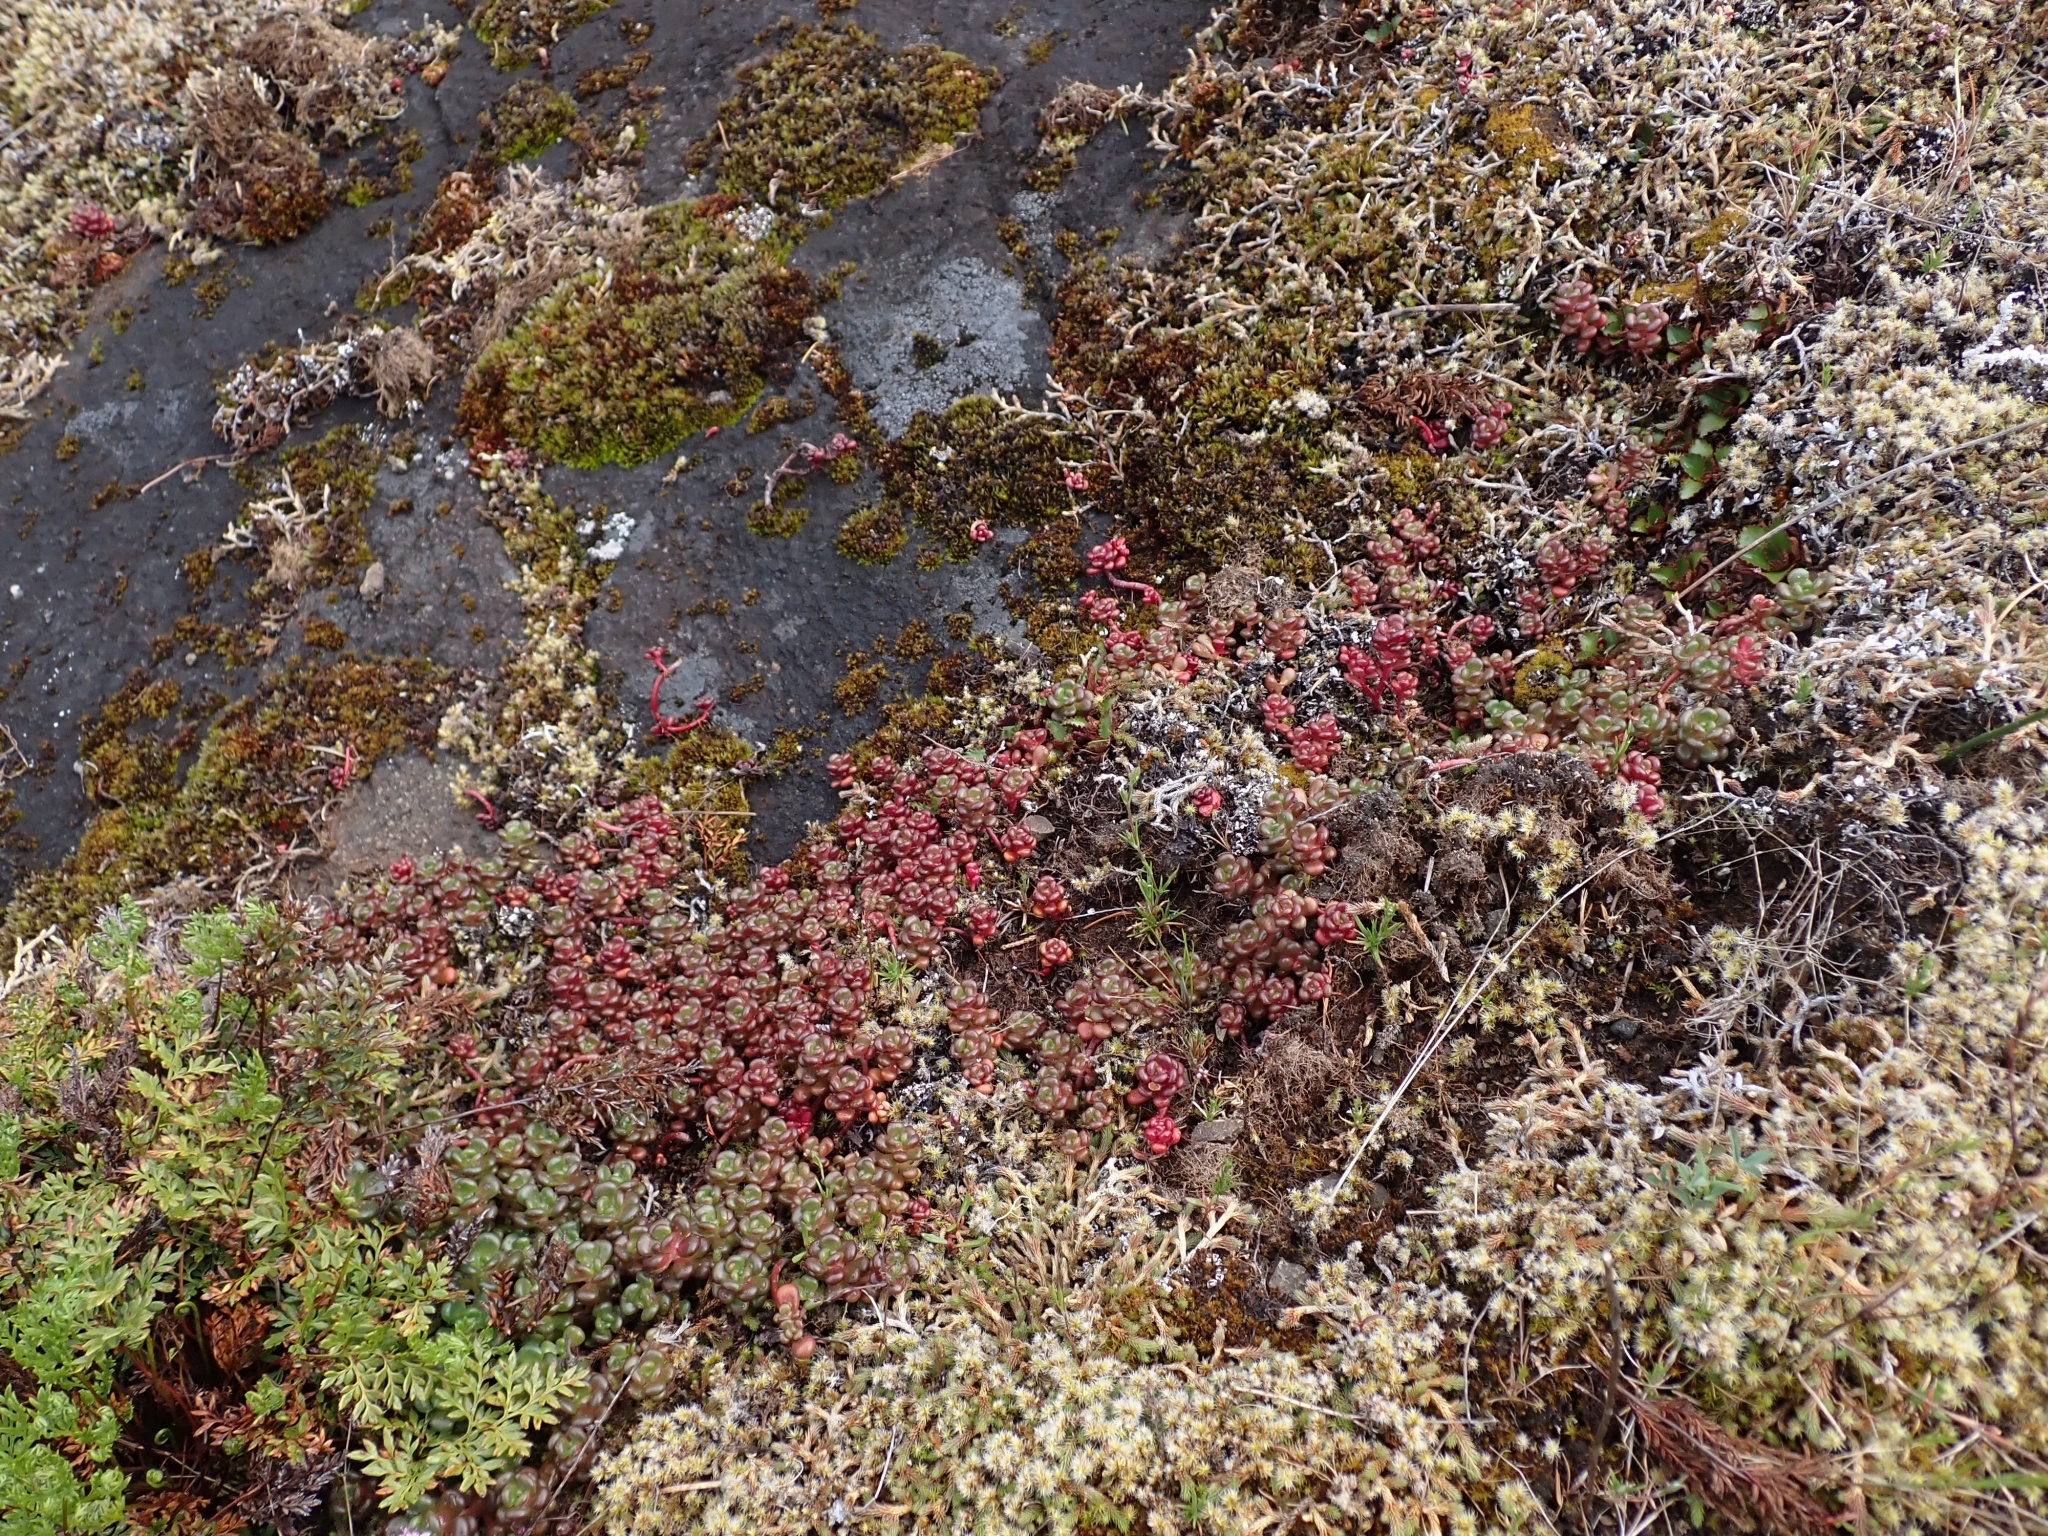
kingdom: Plantae
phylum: Tracheophyta
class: Magnoliopsida
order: Saxifragales
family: Crassulaceae
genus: Sedum
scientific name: Sedum oreganum
